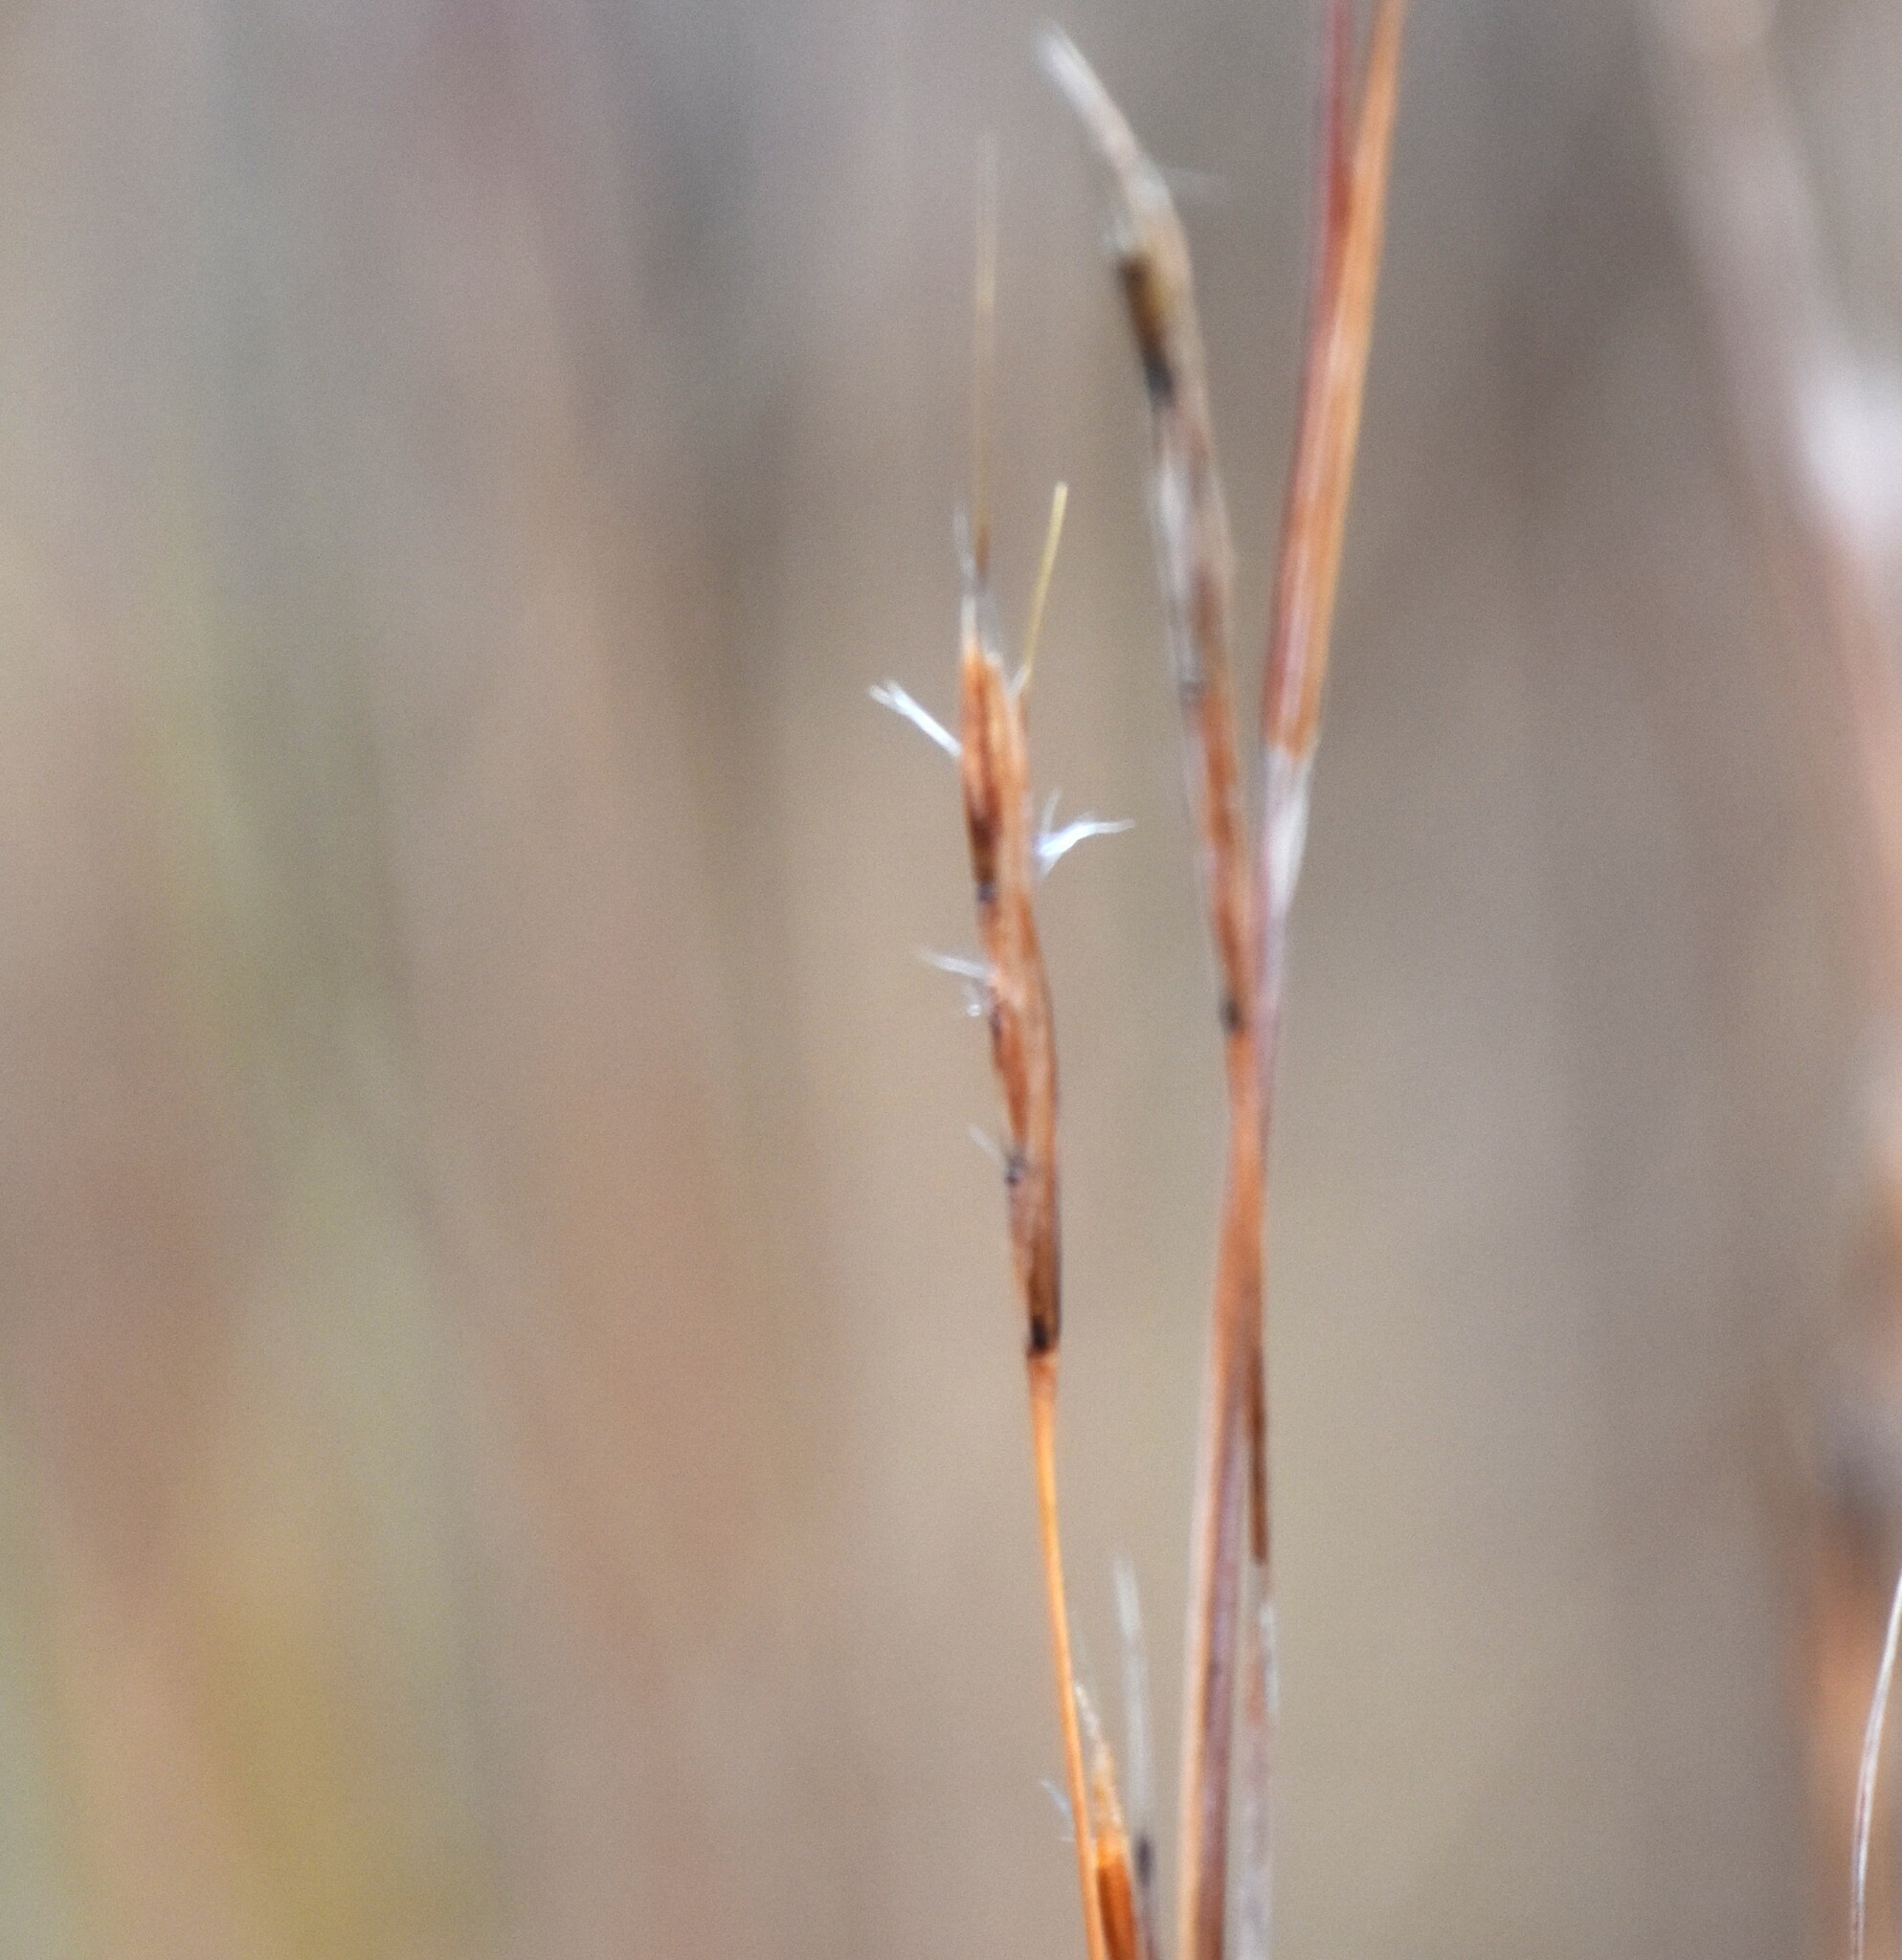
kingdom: Plantae
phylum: Tracheophyta
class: Liliopsida
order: Poales
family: Poaceae
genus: Schizachyrium
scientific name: Schizachyrium scoparium
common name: Little bluestem
